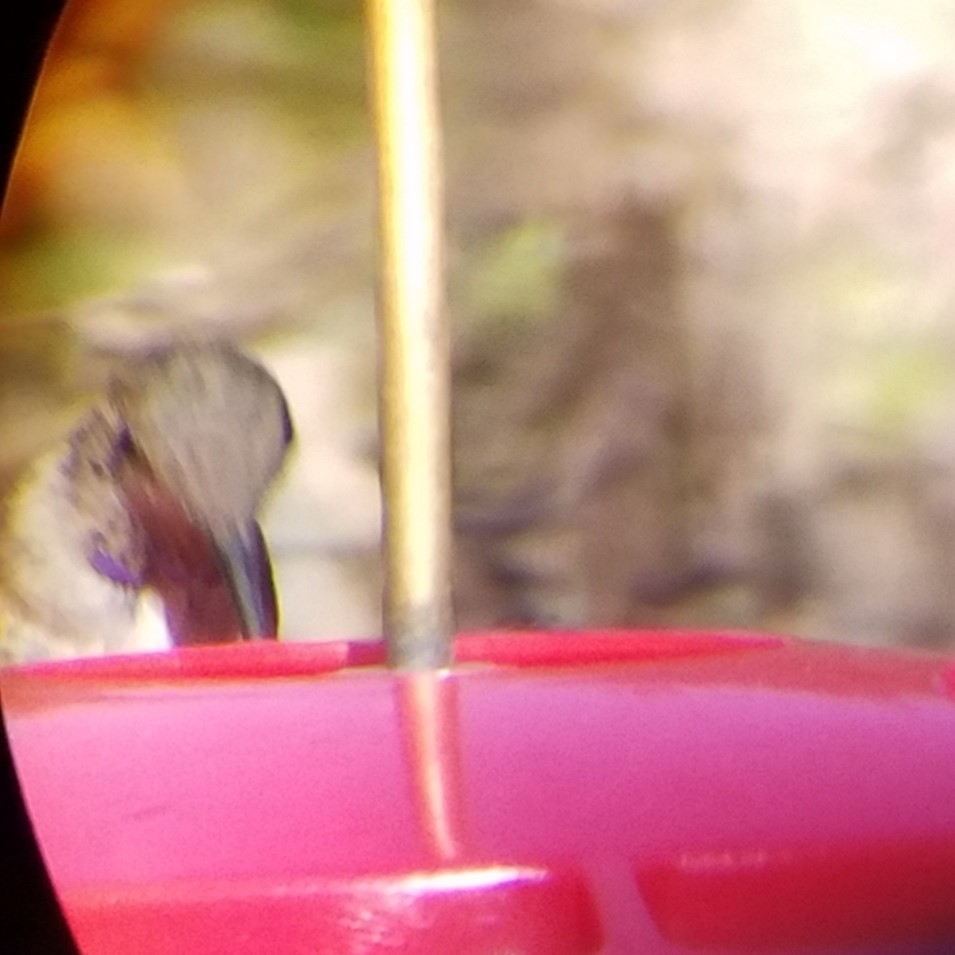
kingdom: Animalia
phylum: Chordata
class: Aves
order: Apodiformes
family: Trochilidae
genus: Archilochus
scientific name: Archilochus alexandri
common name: Black-chinned hummingbird
